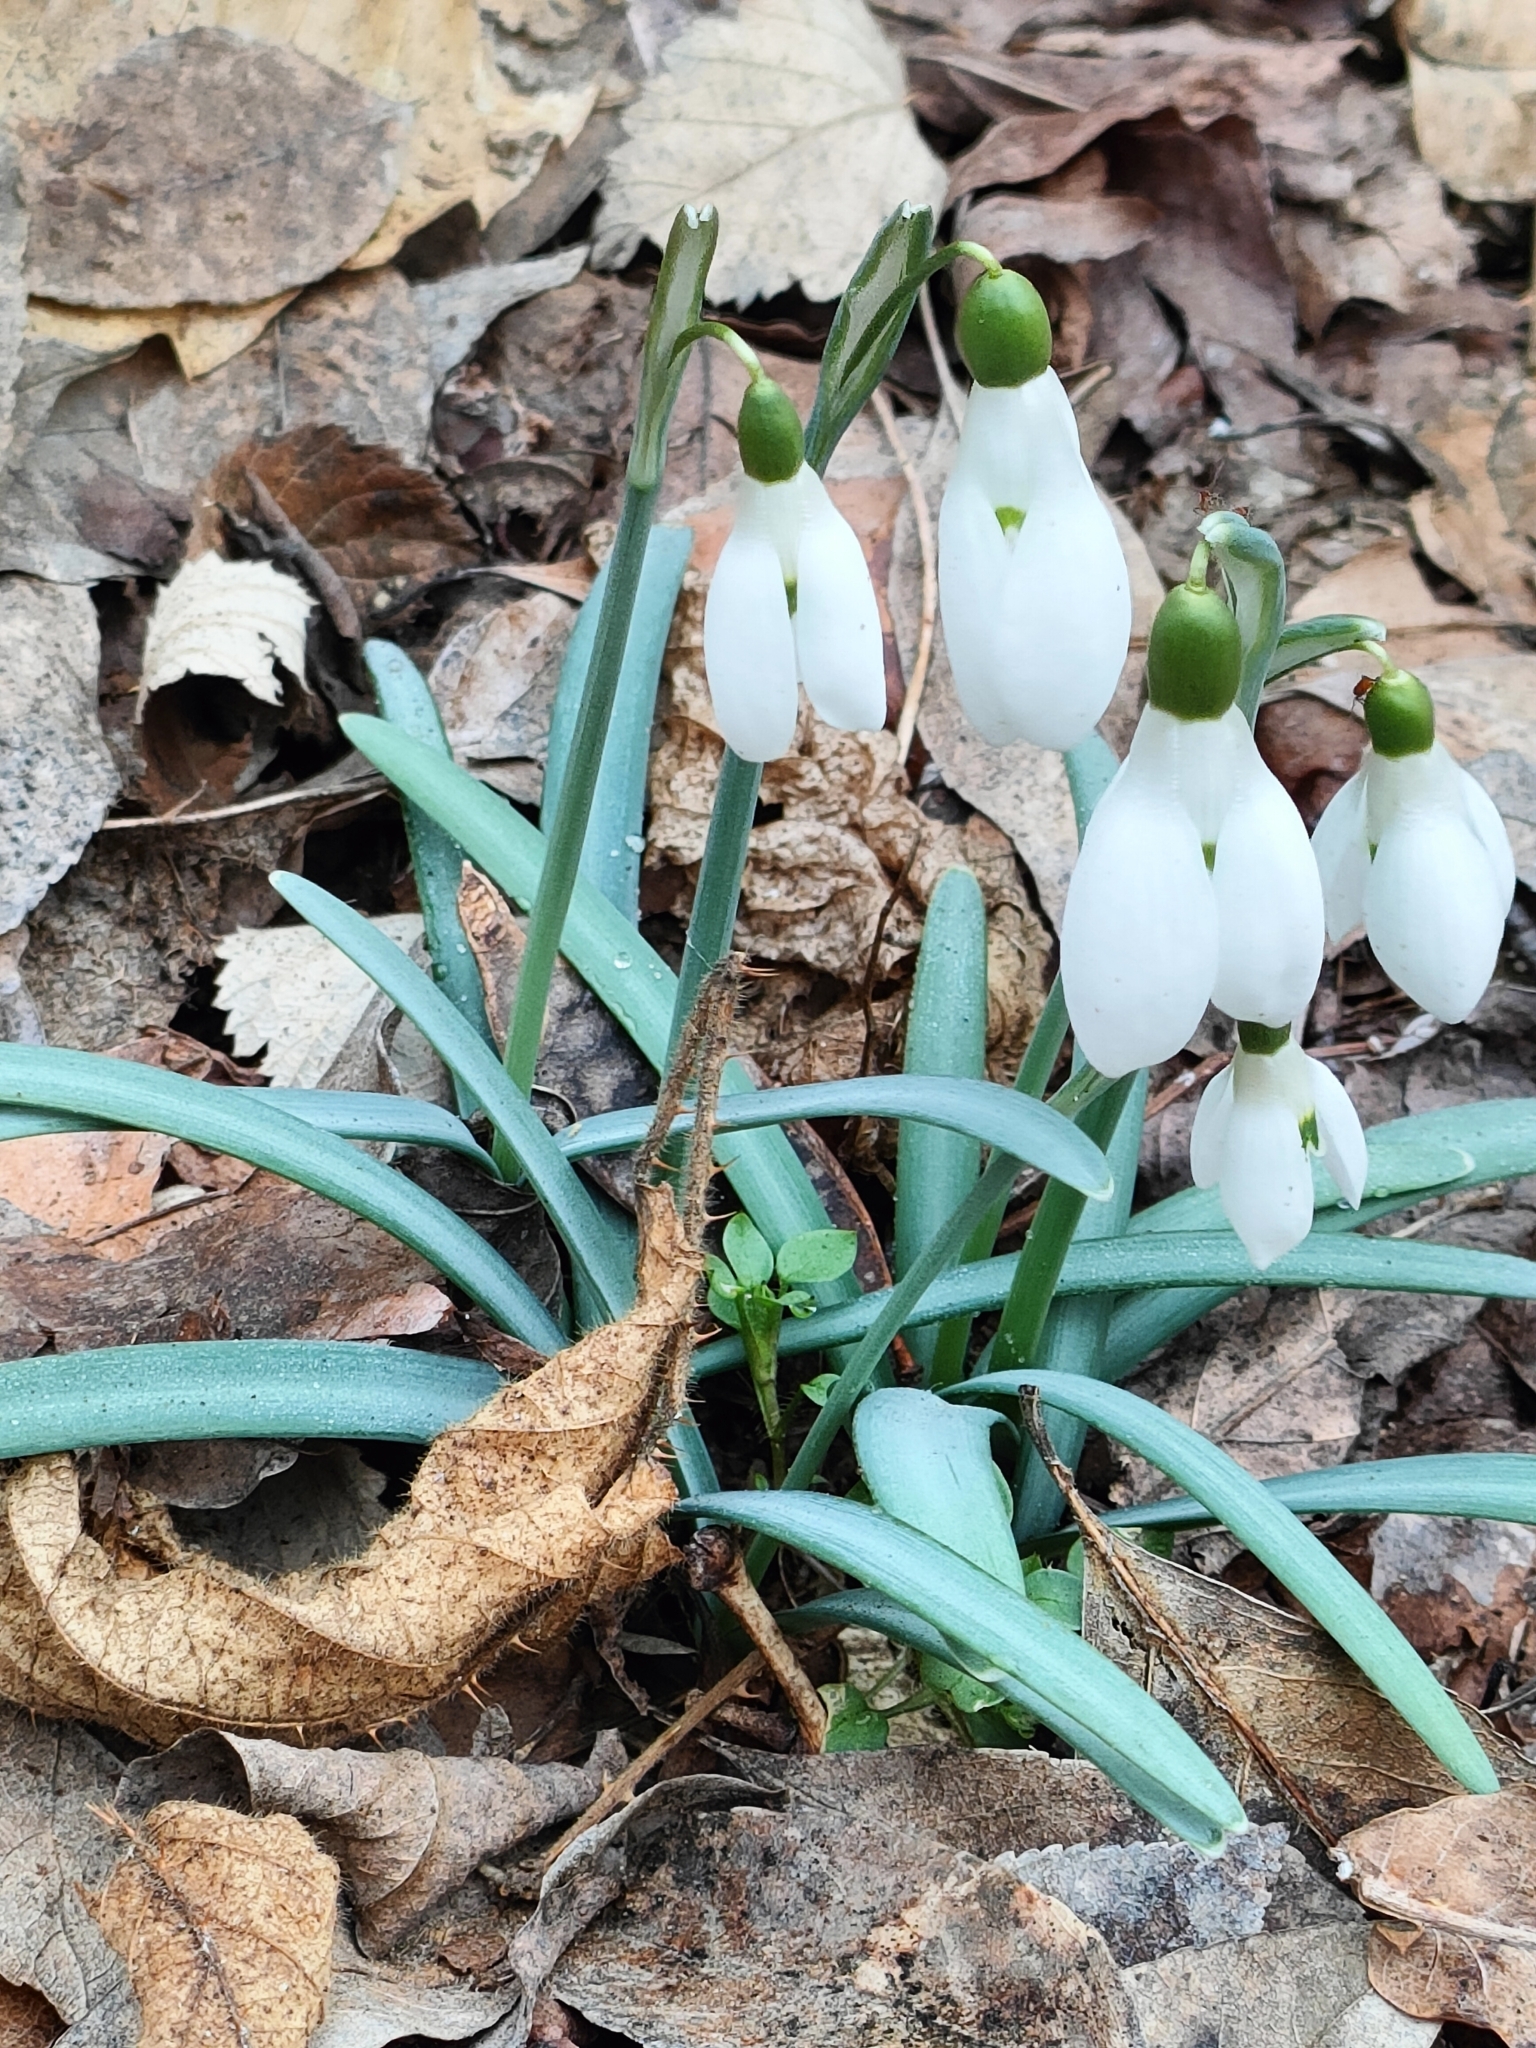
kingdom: Plantae
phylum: Tracheophyta
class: Liliopsida
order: Asparagales
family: Amaryllidaceae
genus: Galanthus
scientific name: Galanthus nivalis
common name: Snowdrop
